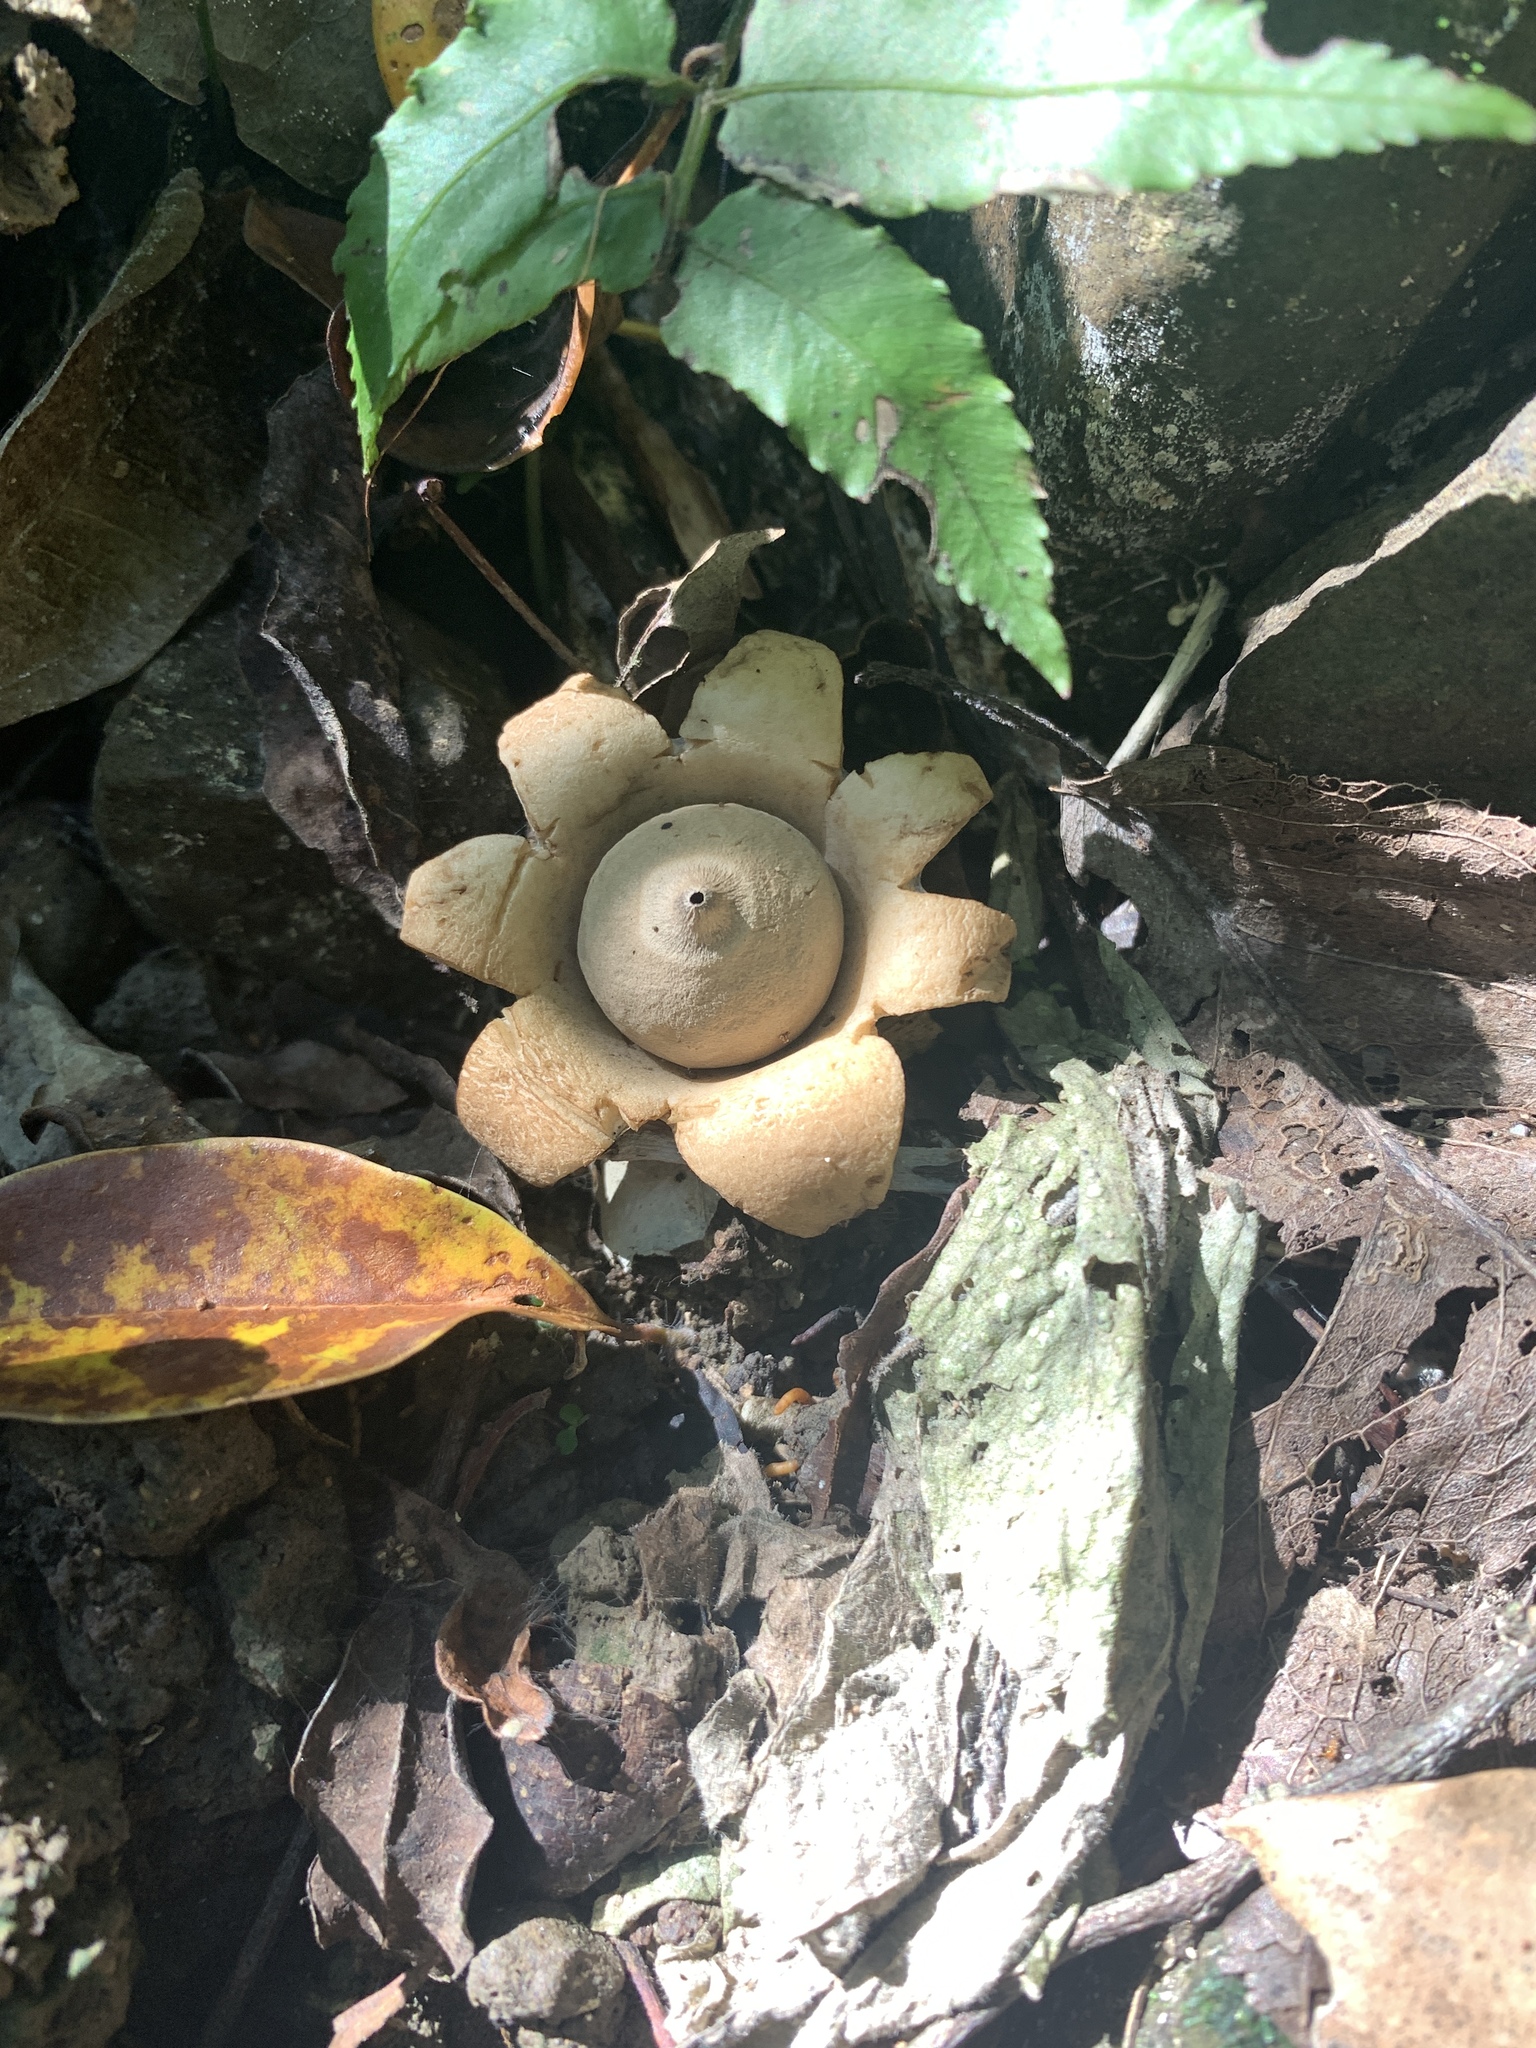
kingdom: Fungi
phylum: Basidiomycota
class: Agaricomycetes
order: Geastrales
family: Geastraceae
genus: Geastrum
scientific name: Geastrum triplex
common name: Collared earthstar
